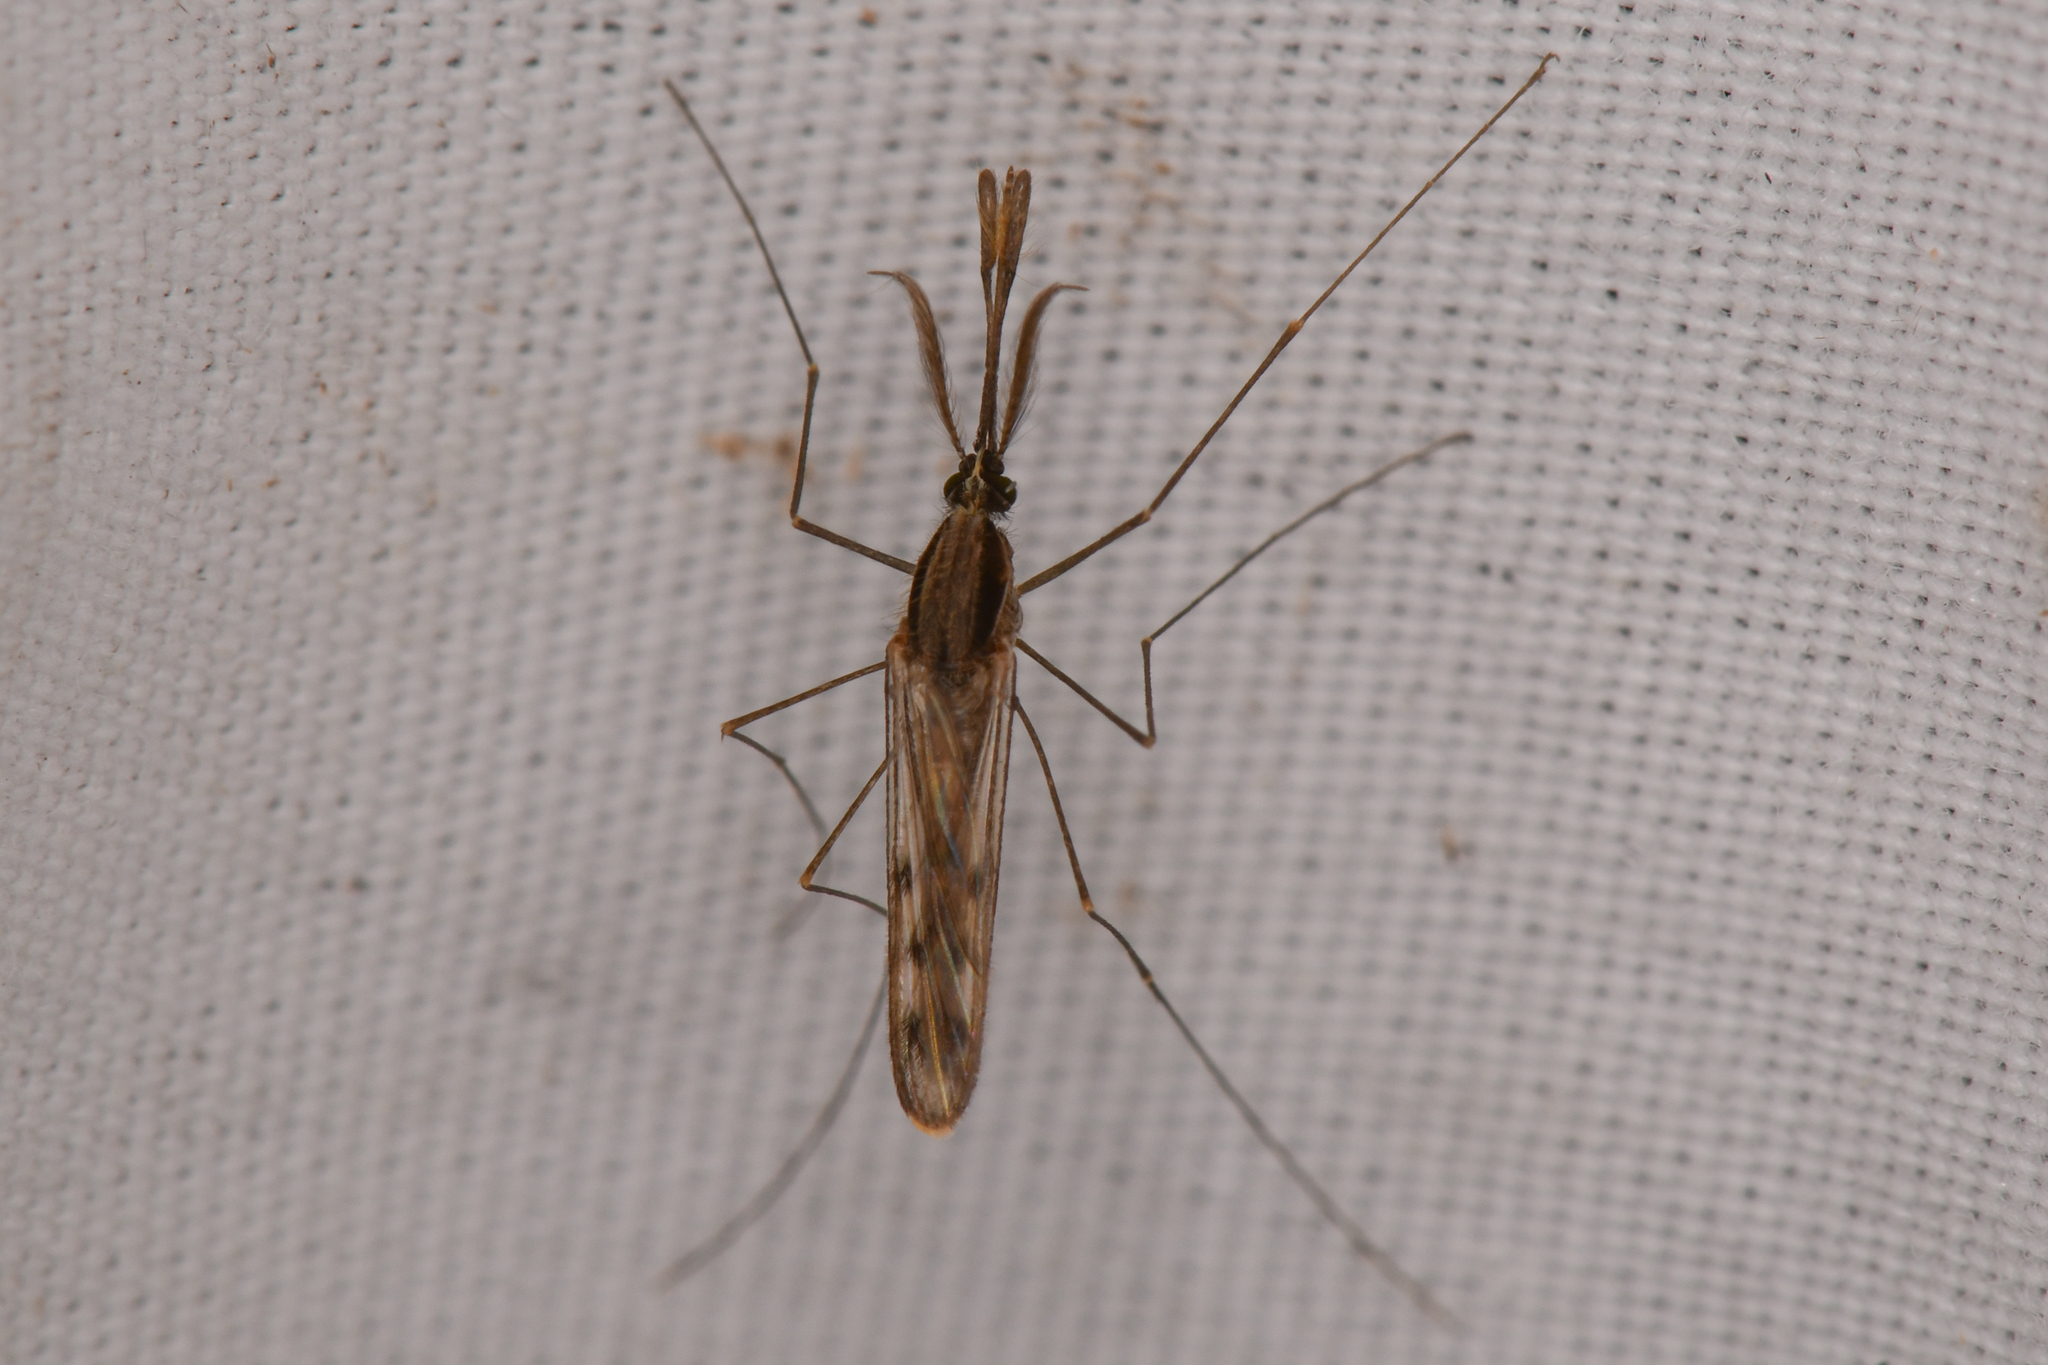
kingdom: Animalia
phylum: Arthropoda
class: Insecta
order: Diptera
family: Culicidae
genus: Anopheles
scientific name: Anopheles occidentalis
